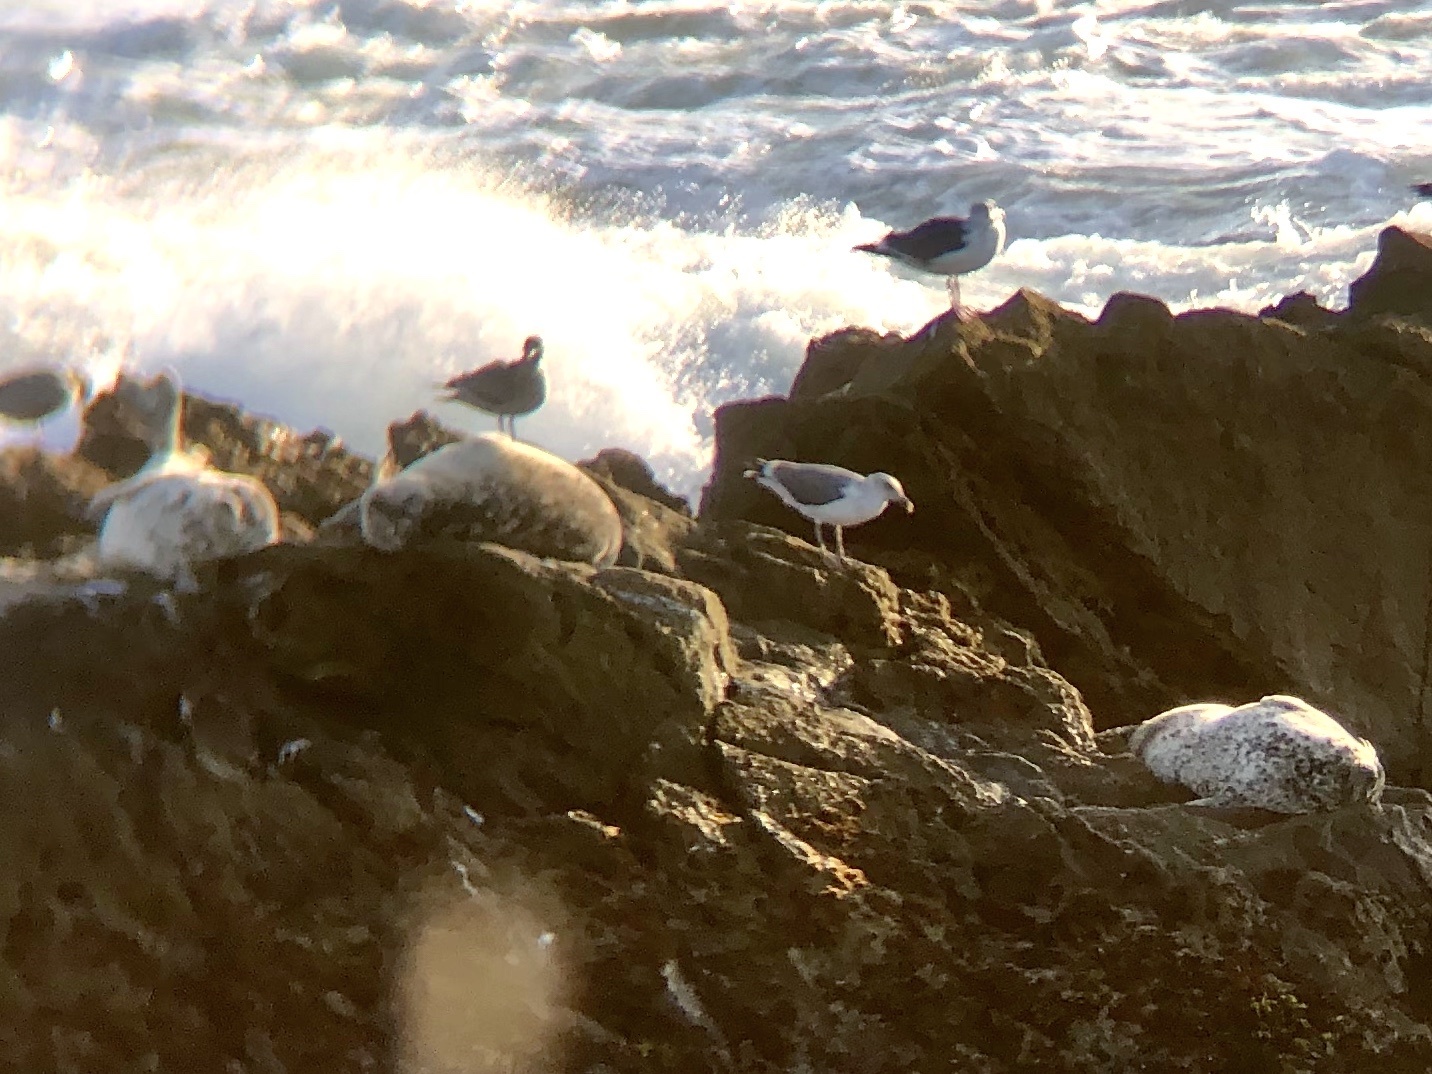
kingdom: Animalia
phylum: Chordata
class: Mammalia
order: Carnivora
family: Phocidae
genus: Phoca
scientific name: Phoca vitulina
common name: Harbor seal
